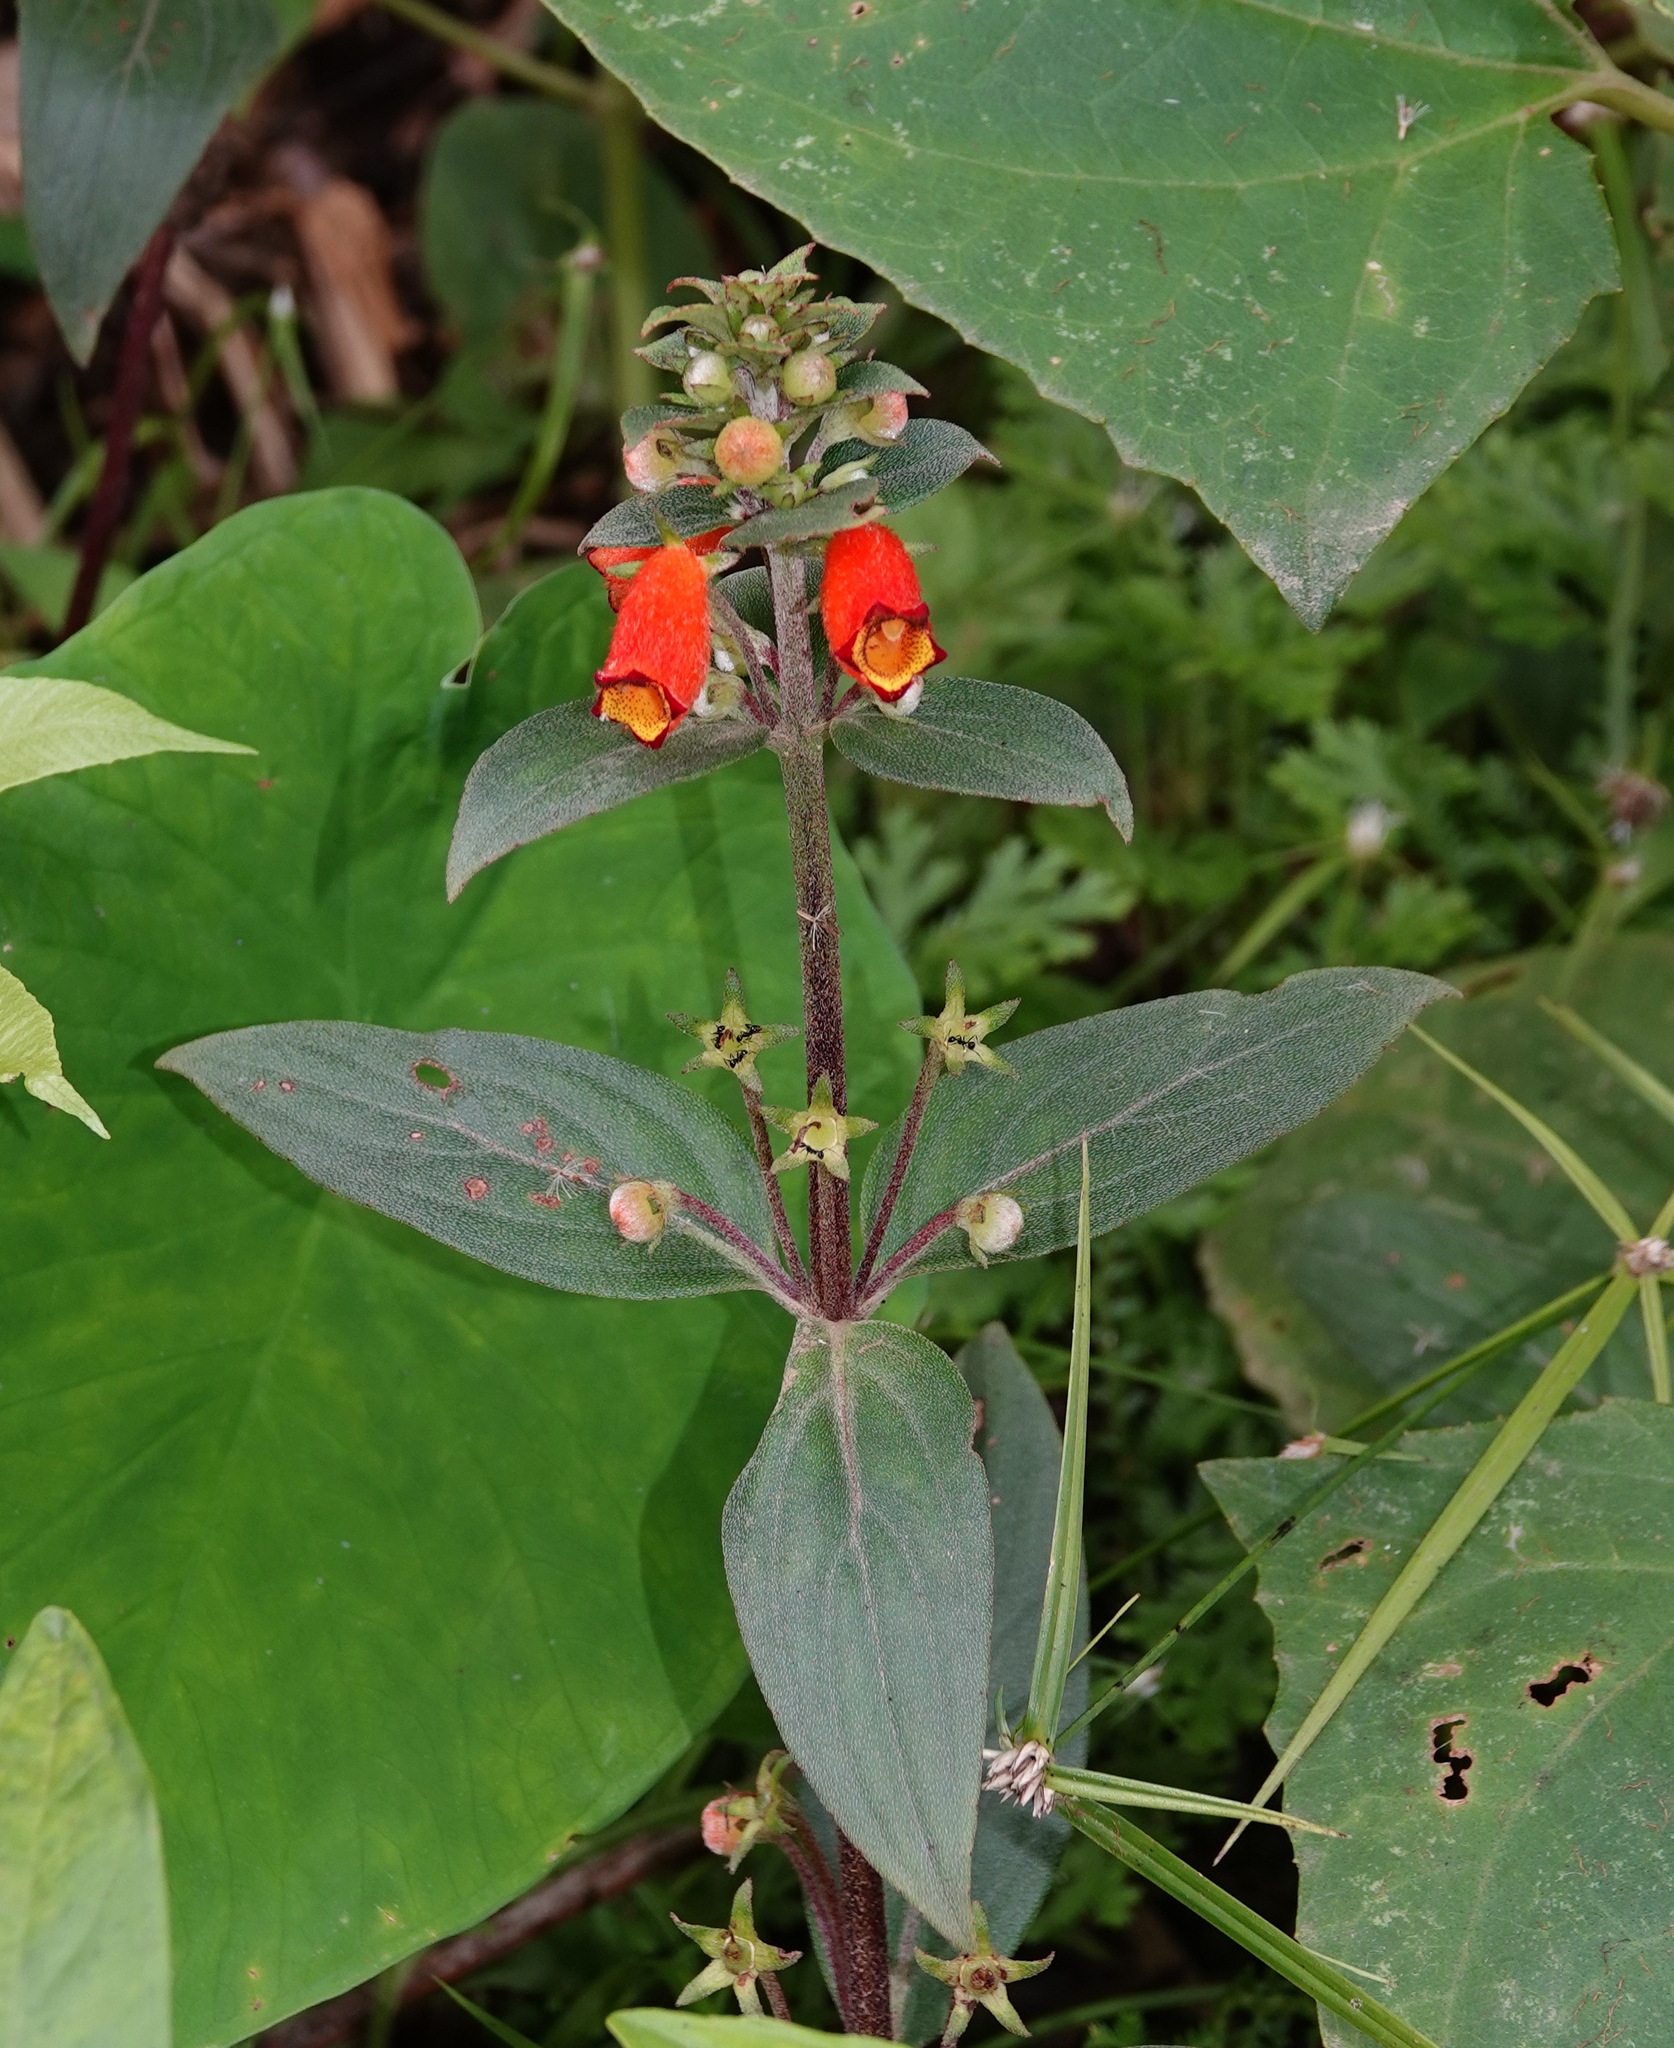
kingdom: Plantae
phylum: Tracheophyta
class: Magnoliopsida
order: Lamiales
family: Gesneriaceae
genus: Seemannia
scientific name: Seemannia sylvatica
